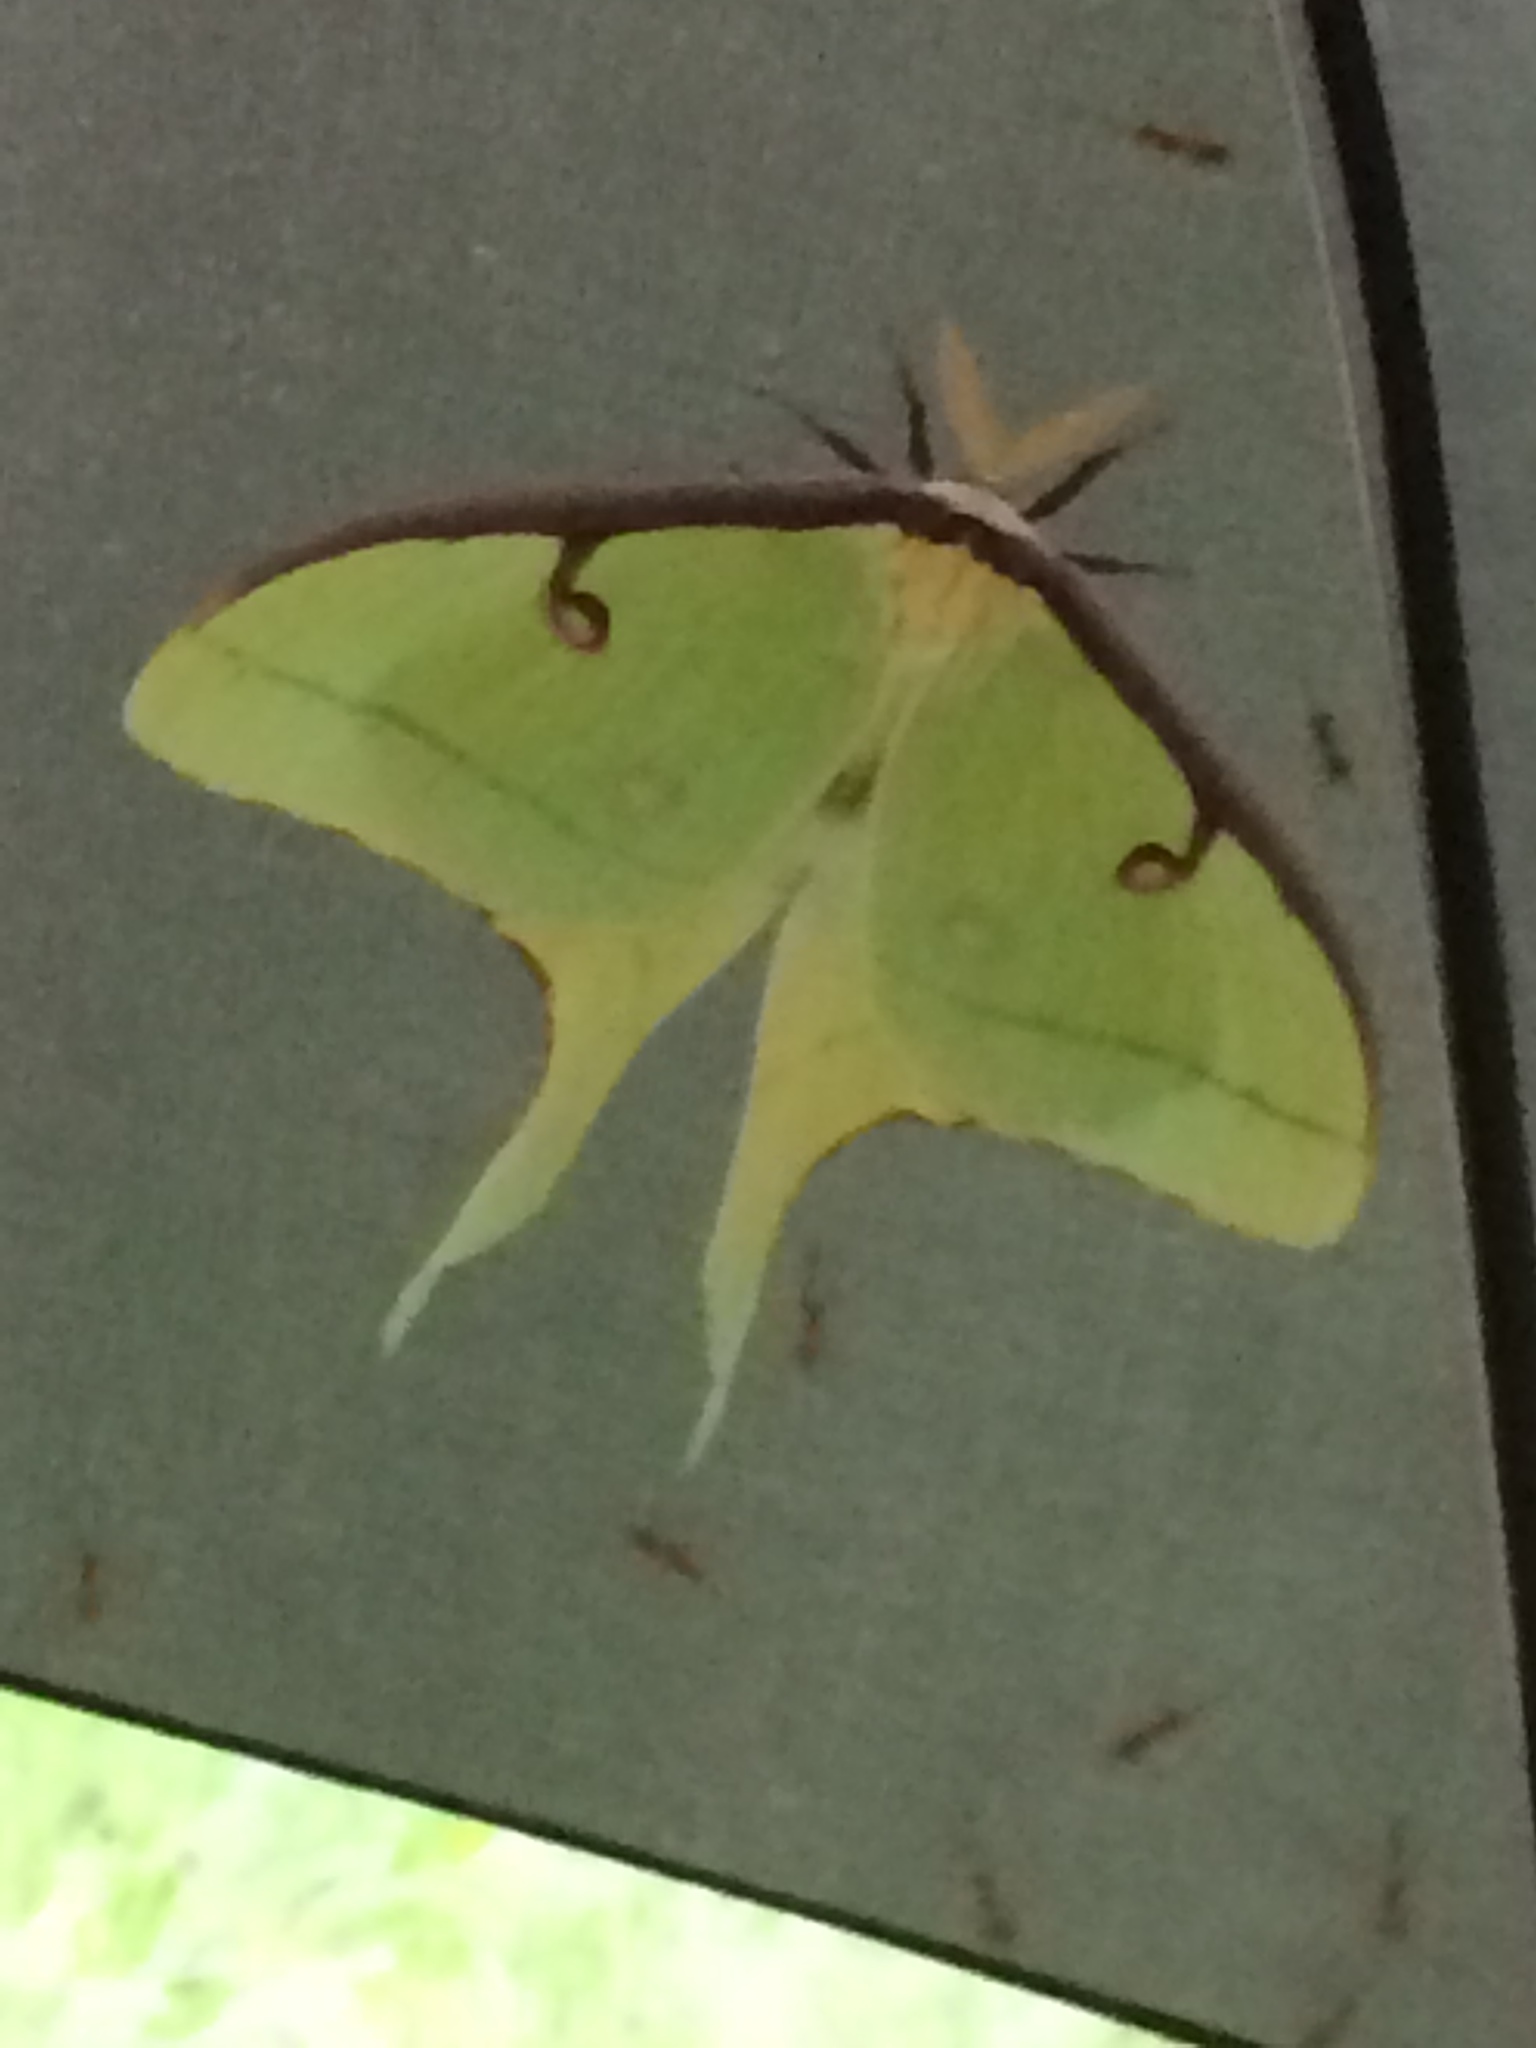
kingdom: Animalia
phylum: Arthropoda
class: Insecta
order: Lepidoptera
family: Saturniidae
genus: Actias
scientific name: Actias luna
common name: Luna moth
